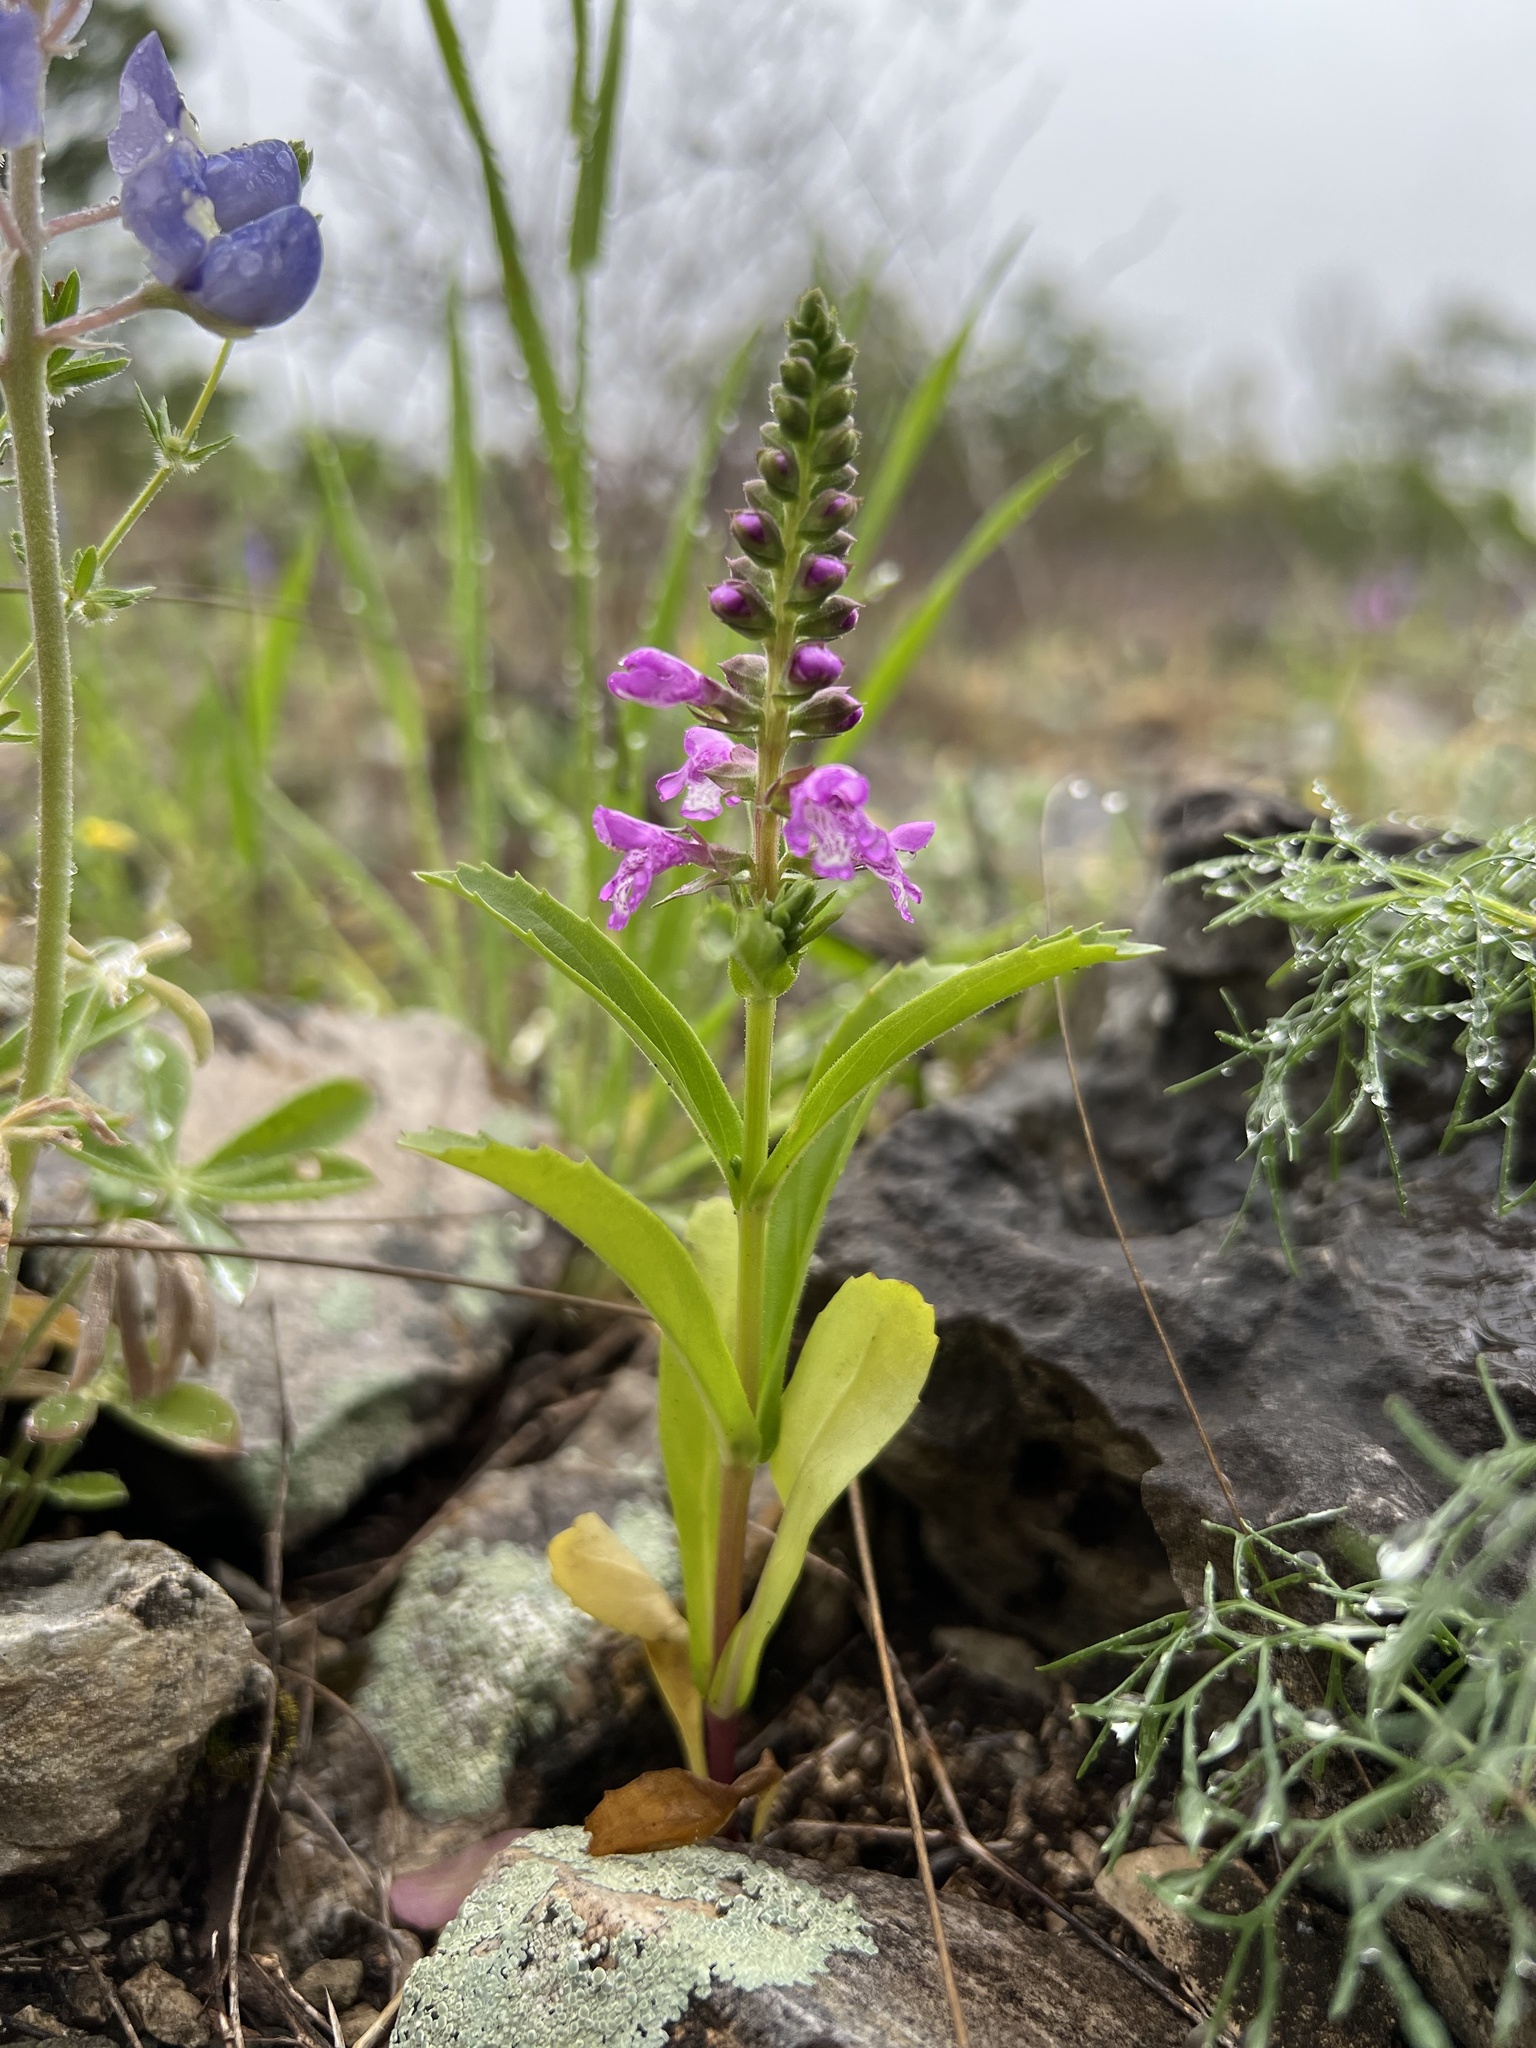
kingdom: Plantae
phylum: Tracheophyta
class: Magnoliopsida
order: Lamiales
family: Lamiaceae
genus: Warnockia
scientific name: Warnockia scutellarioides
